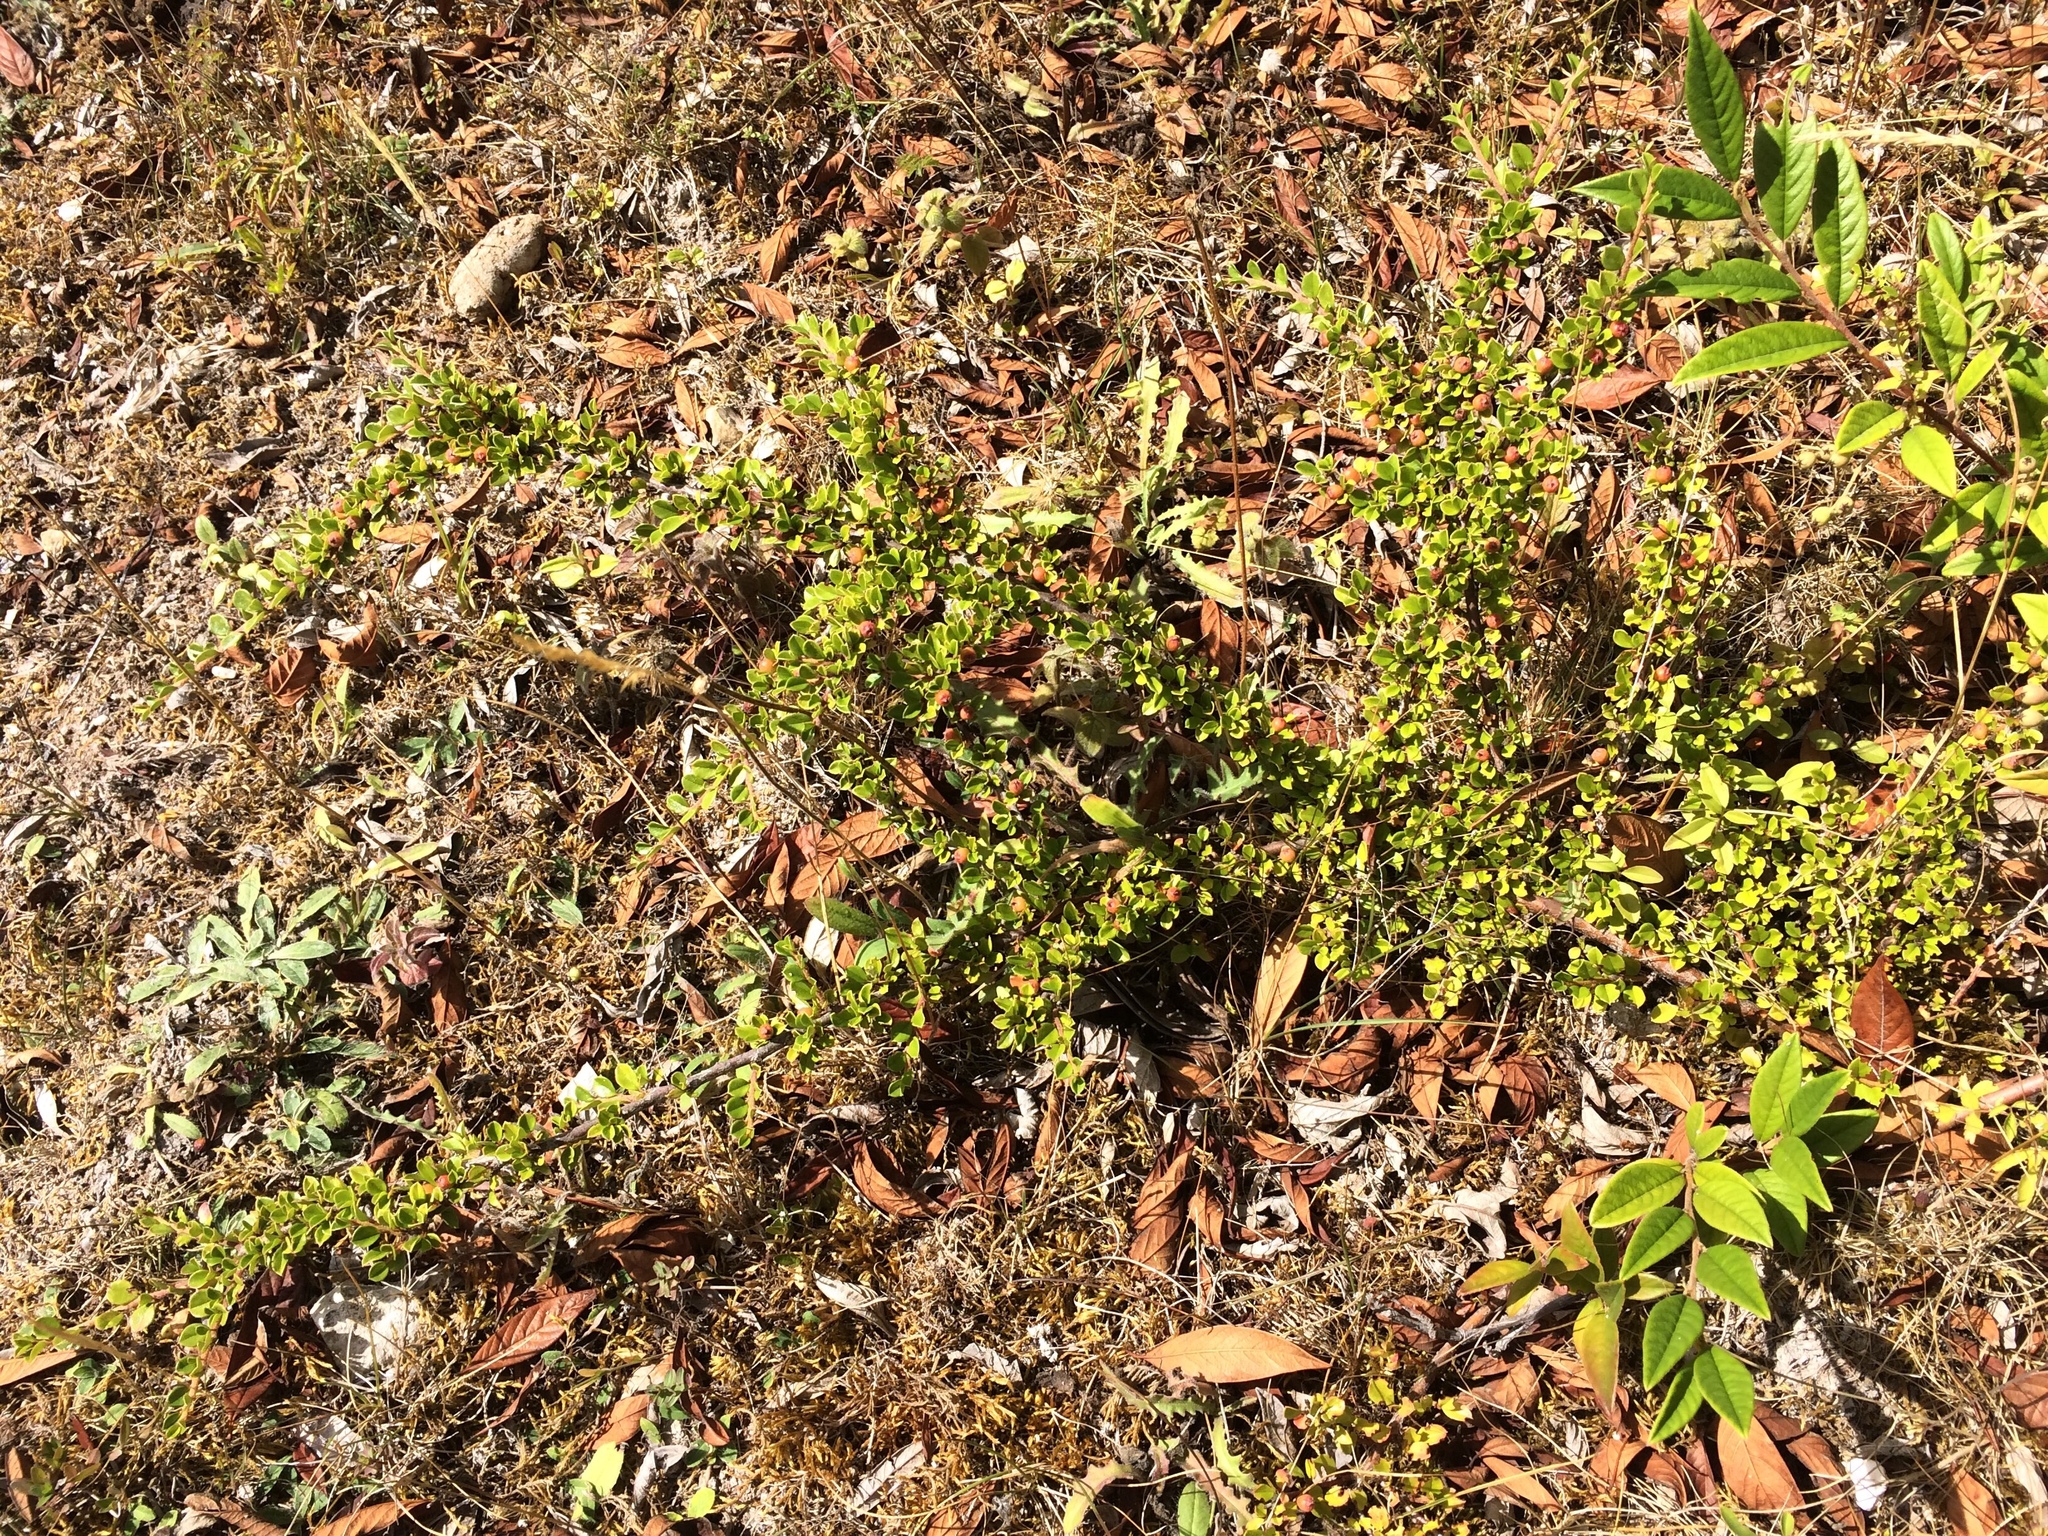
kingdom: Plantae
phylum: Tracheophyta
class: Magnoliopsida
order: Rosales
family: Rosaceae
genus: Cotoneaster
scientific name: Cotoneaster horizontalis
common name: Wall cotoneaster
